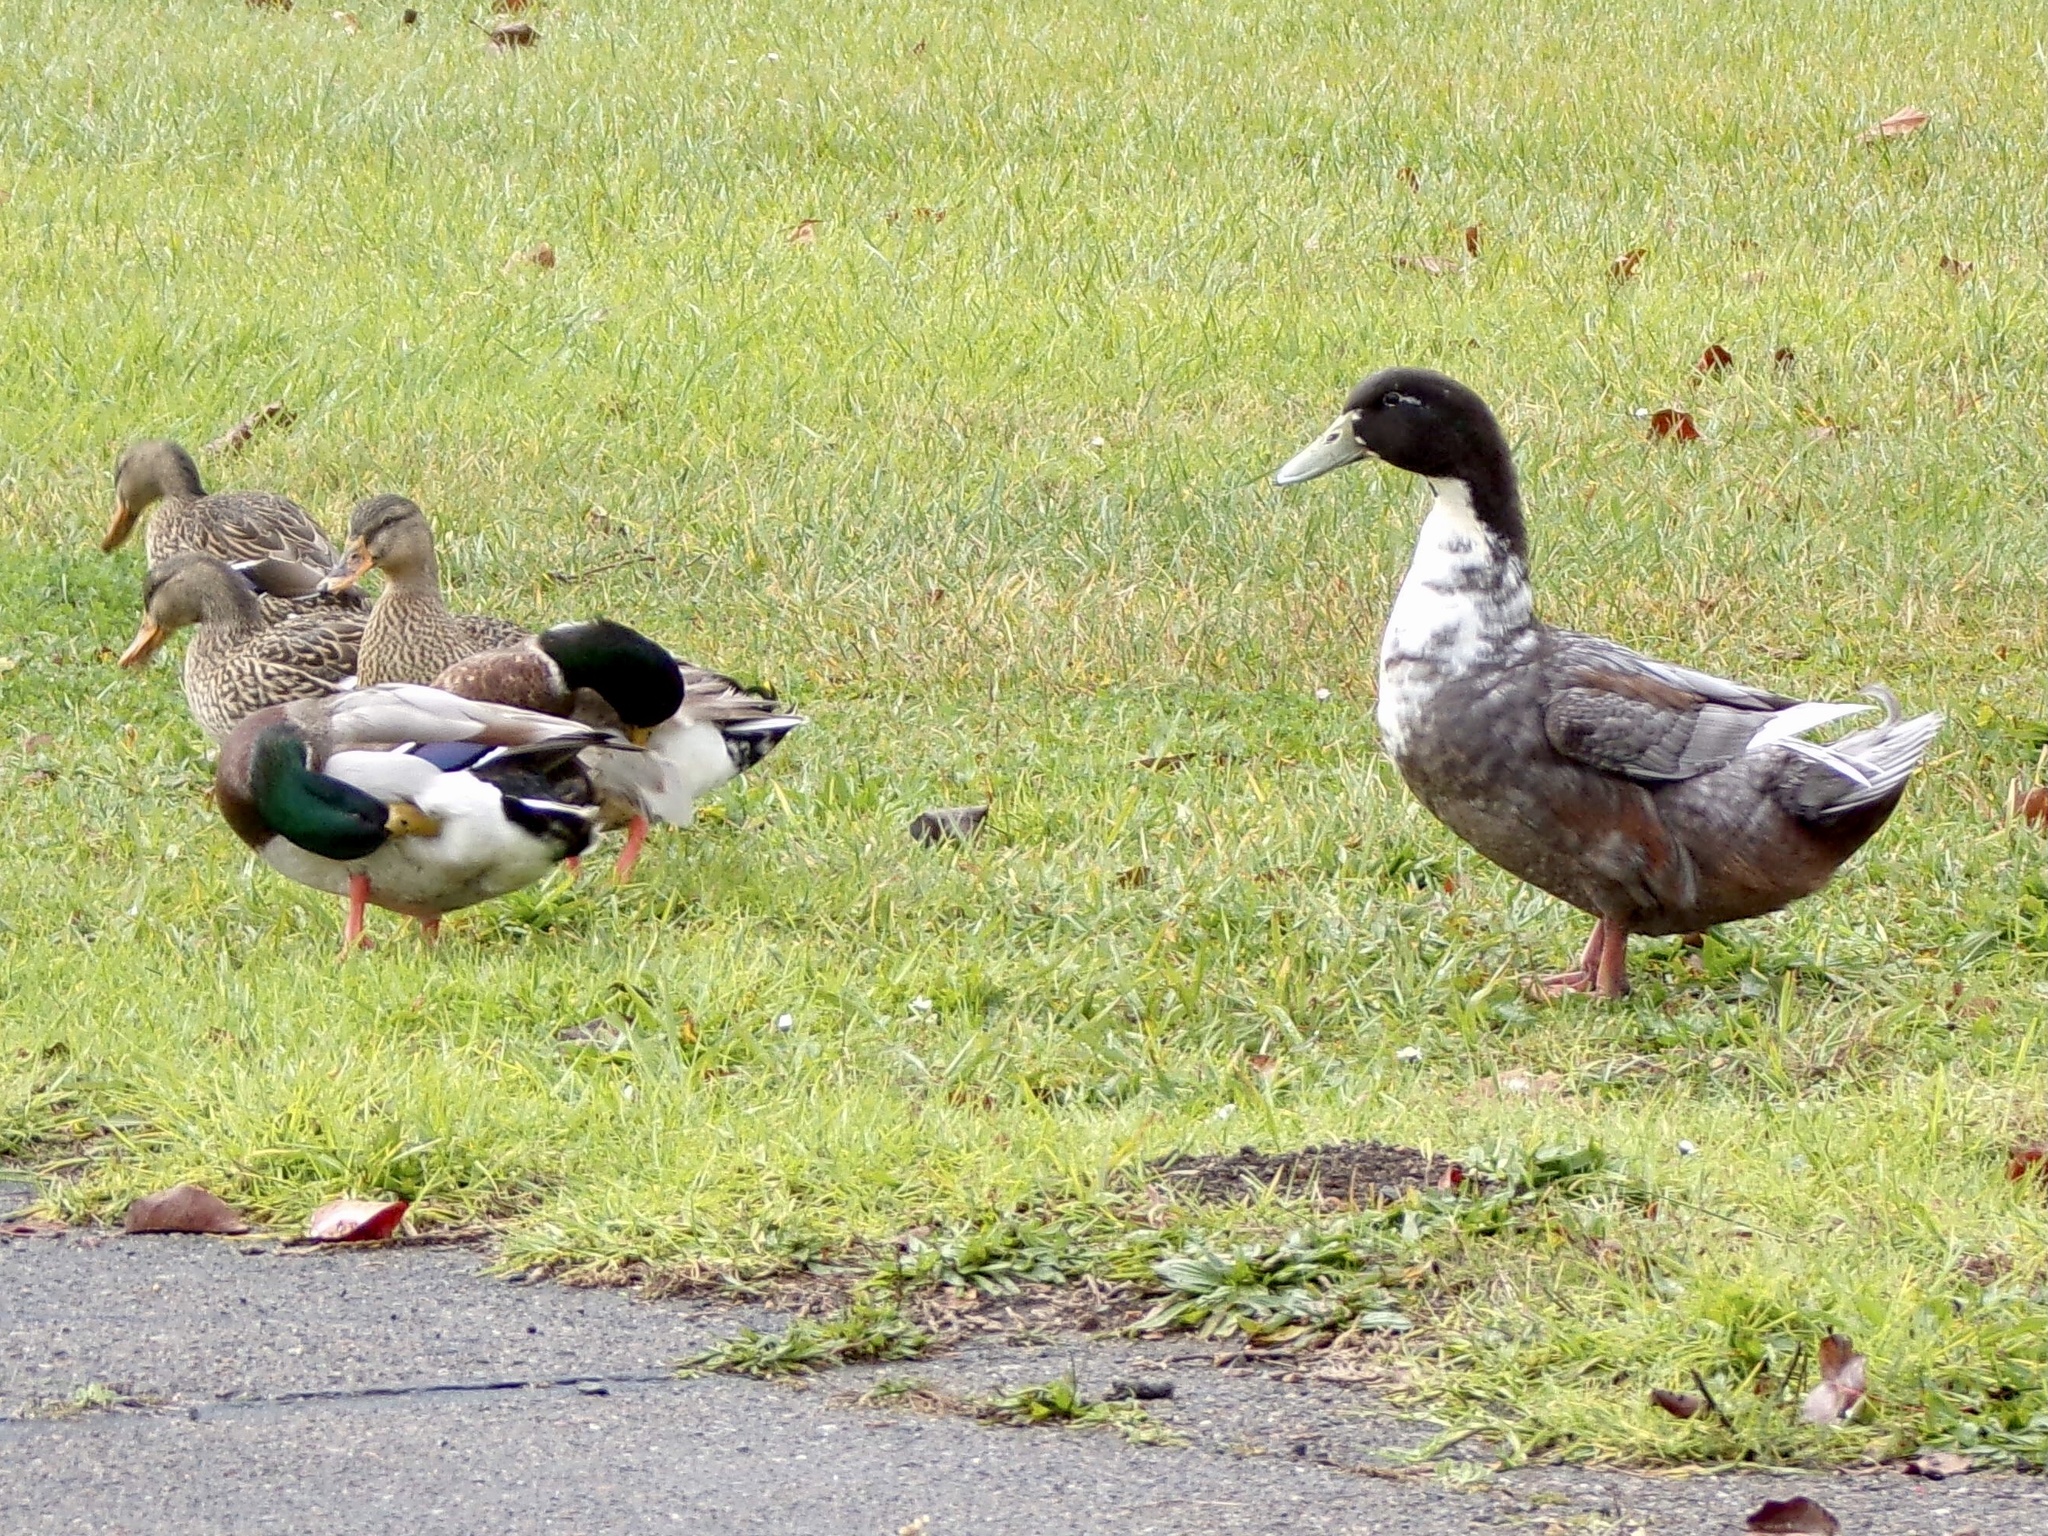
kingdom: Animalia
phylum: Chordata
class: Aves
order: Anseriformes
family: Anatidae
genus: Anas
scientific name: Anas platyrhynchos
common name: Mallard
